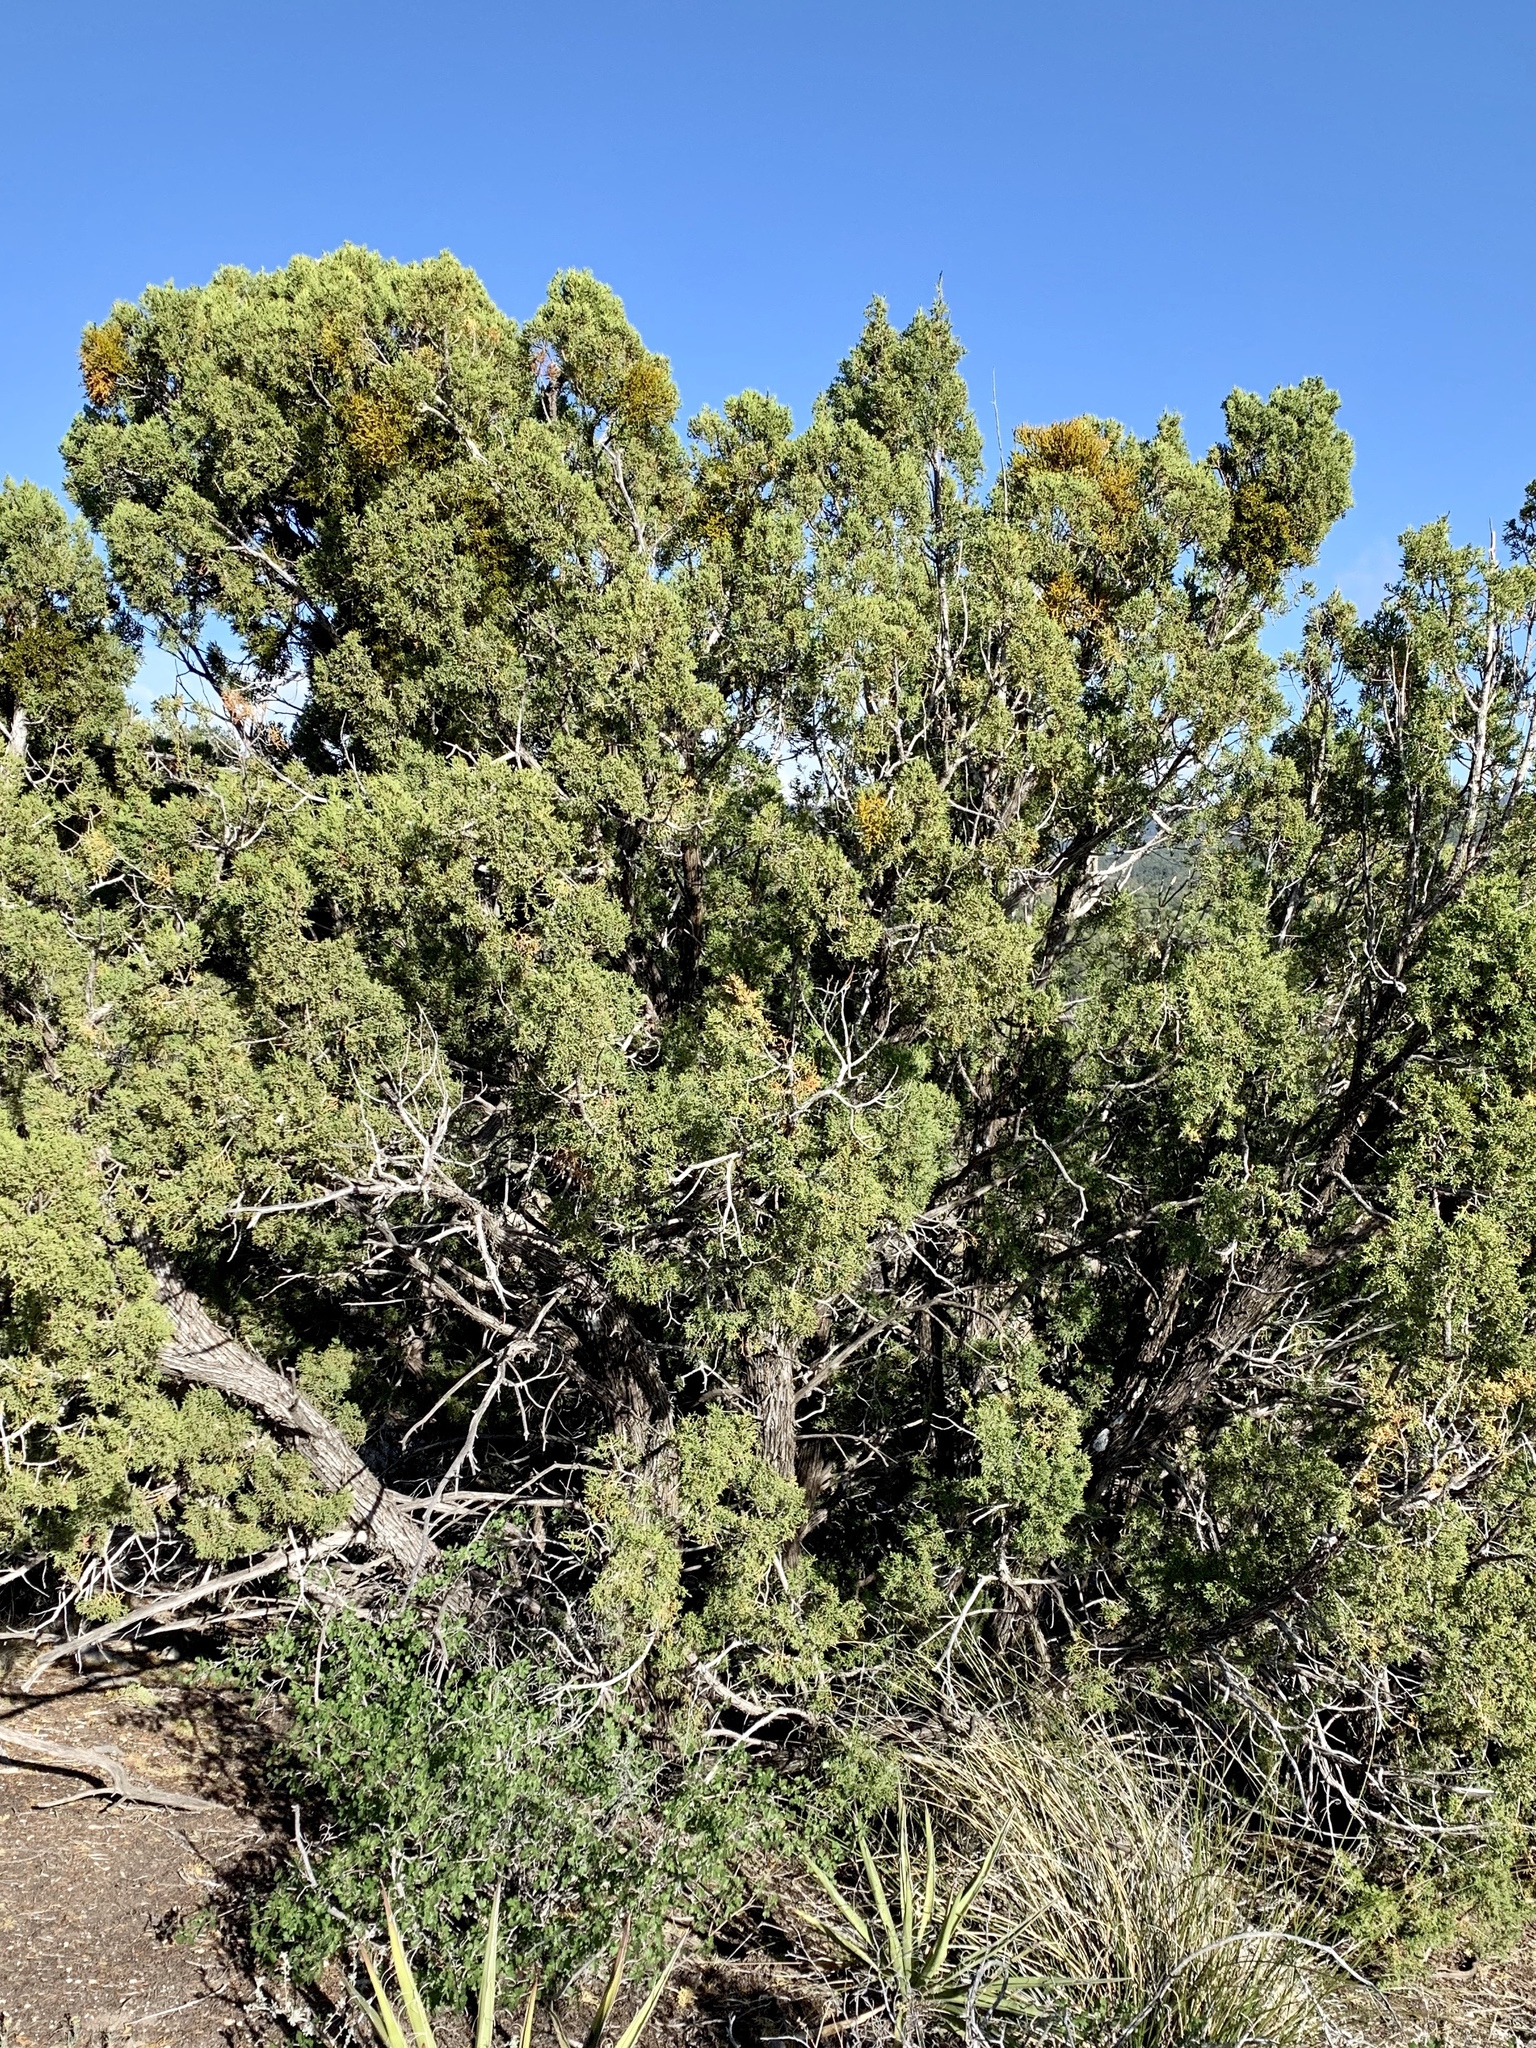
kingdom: Plantae
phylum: Tracheophyta
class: Pinopsida
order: Pinales
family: Cupressaceae
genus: Juniperus
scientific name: Juniperus monosperma
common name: One-seed juniper
